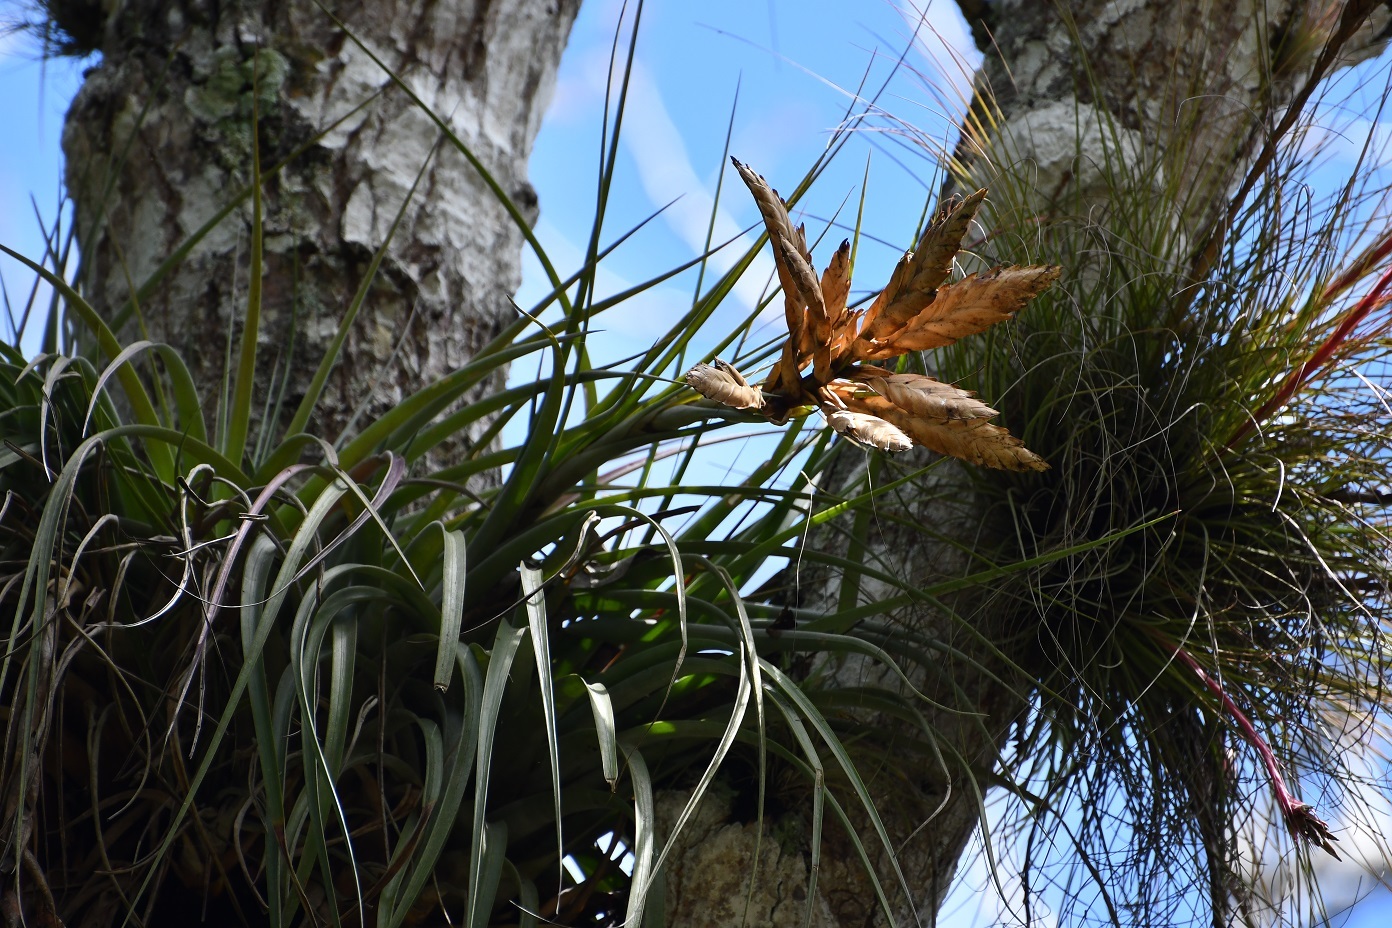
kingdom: Plantae
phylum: Tracheophyta
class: Liliopsida
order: Poales
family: Bromeliaceae
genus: Tillandsia
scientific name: Tillandsia fasciculata
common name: Giant airplant
